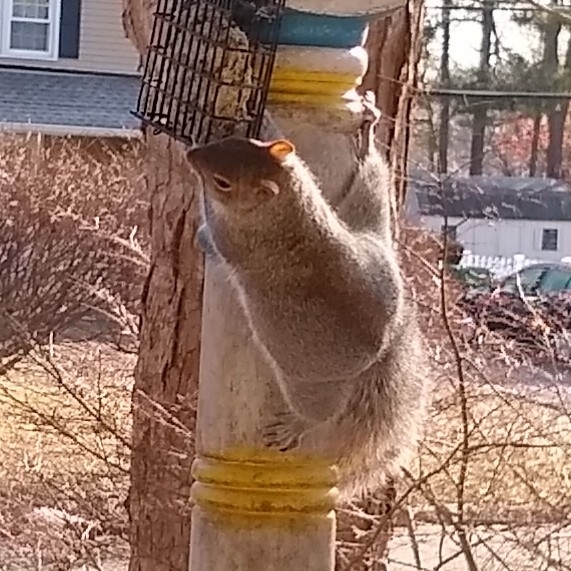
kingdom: Animalia
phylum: Chordata
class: Mammalia
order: Rodentia
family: Sciuridae
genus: Sciurus
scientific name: Sciurus carolinensis
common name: Eastern gray squirrel
